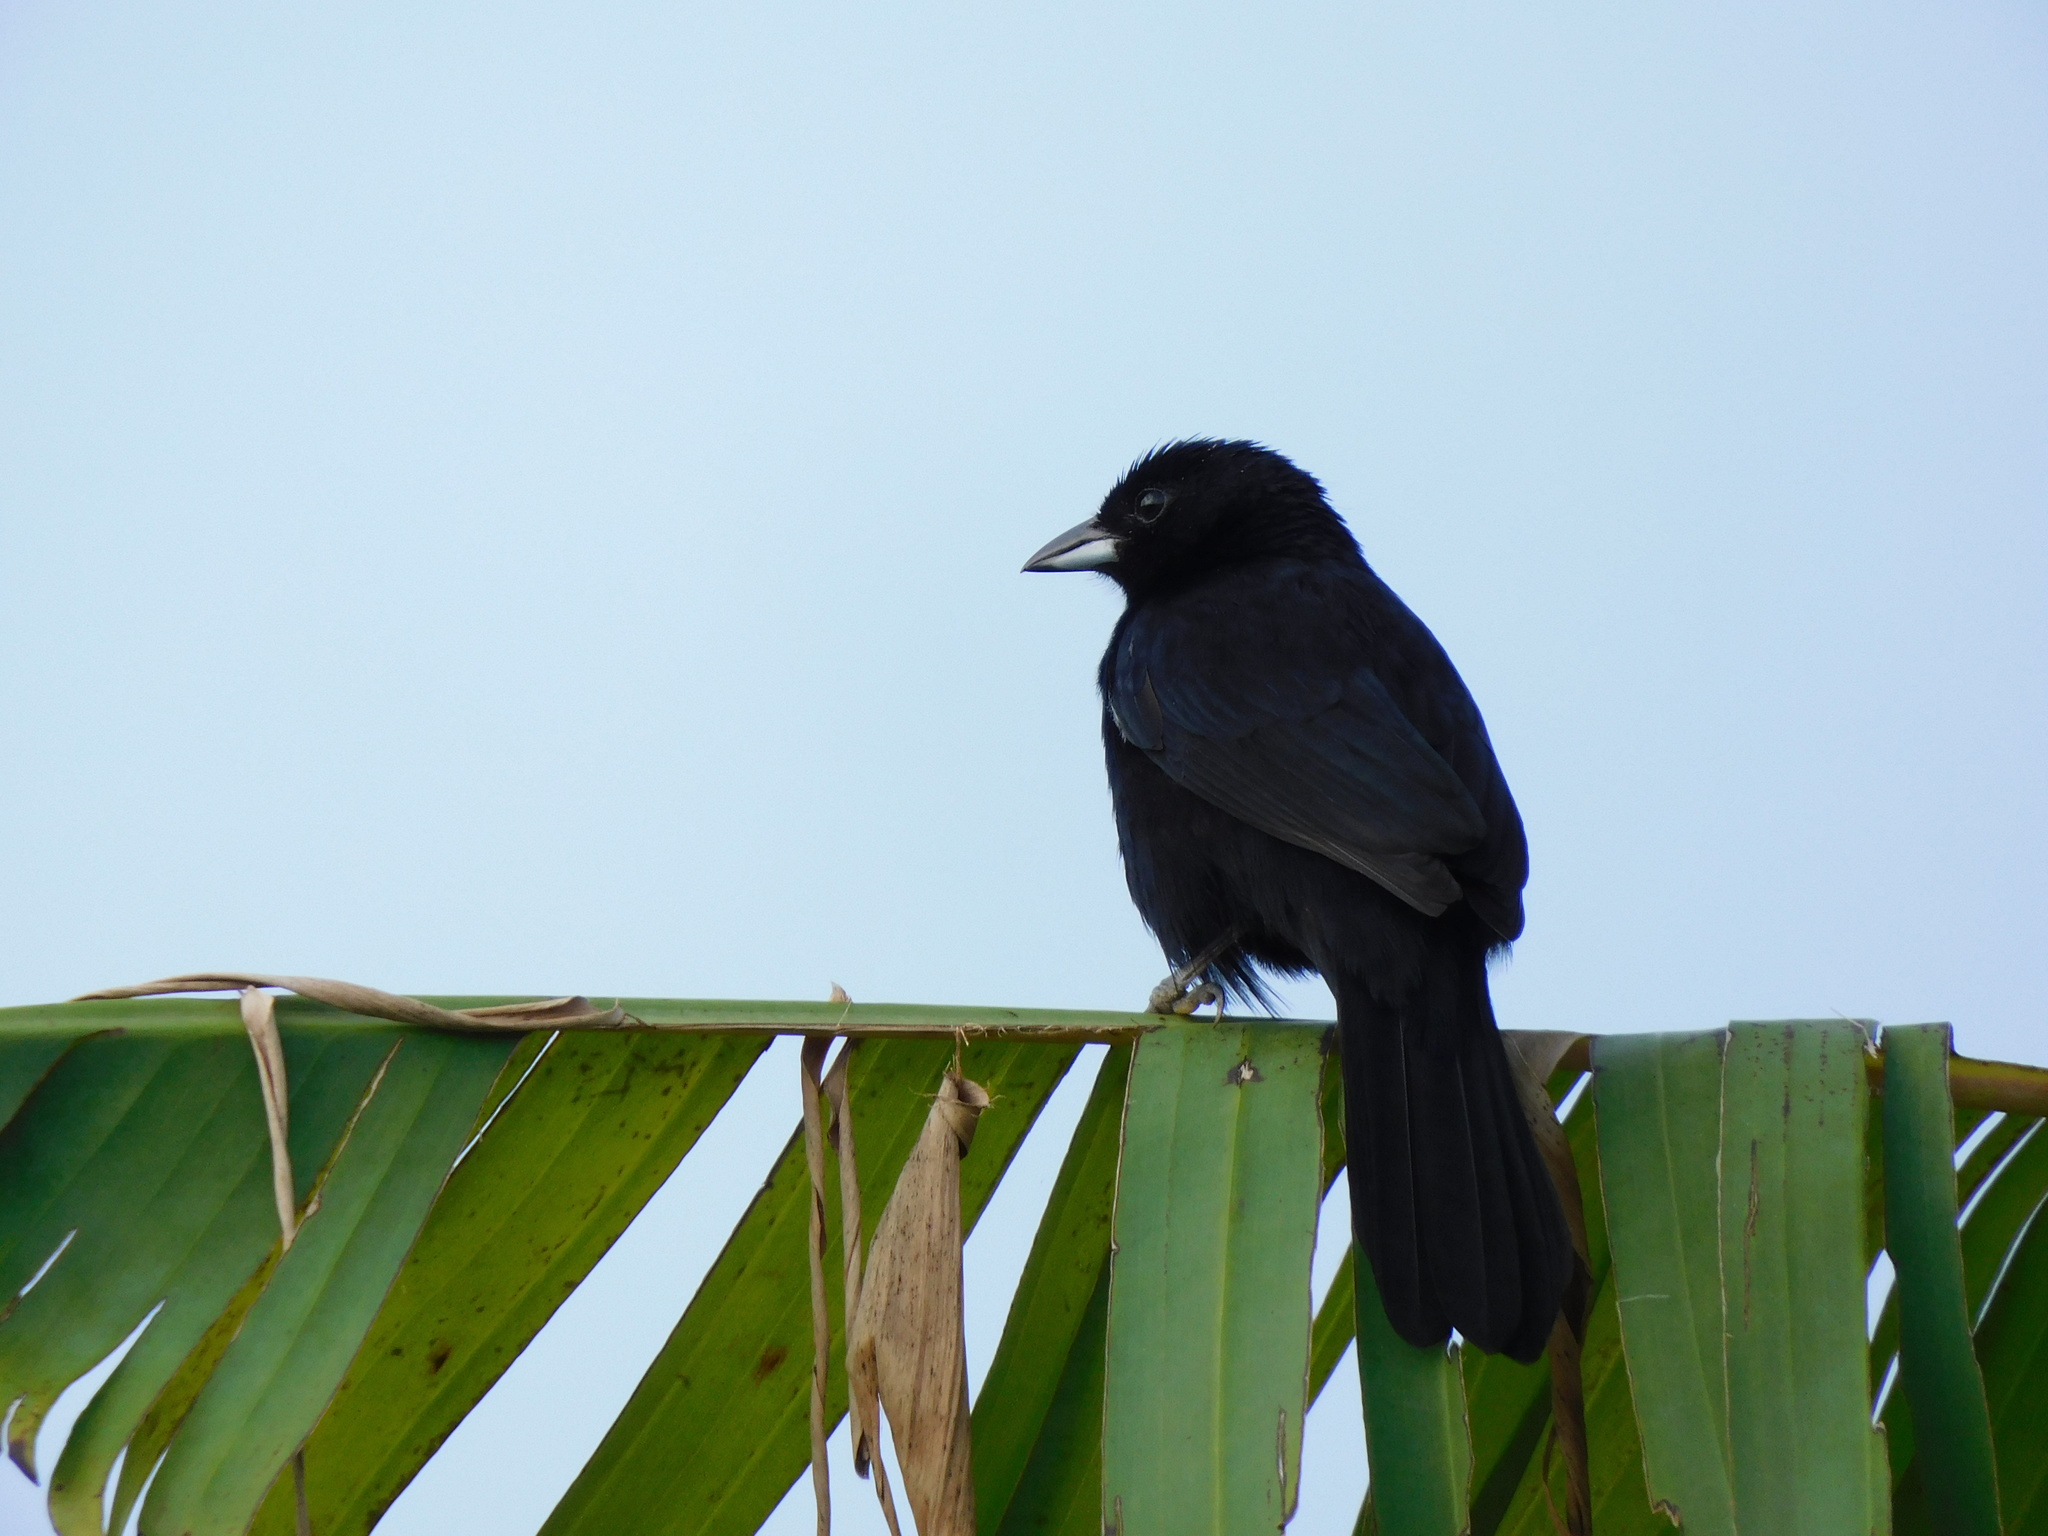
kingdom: Animalia
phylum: Chordata
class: Aves
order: Passeriformes
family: Thraupidae
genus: Tachyphonus
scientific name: Tachyphonus rufus
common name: White-lined tanager
